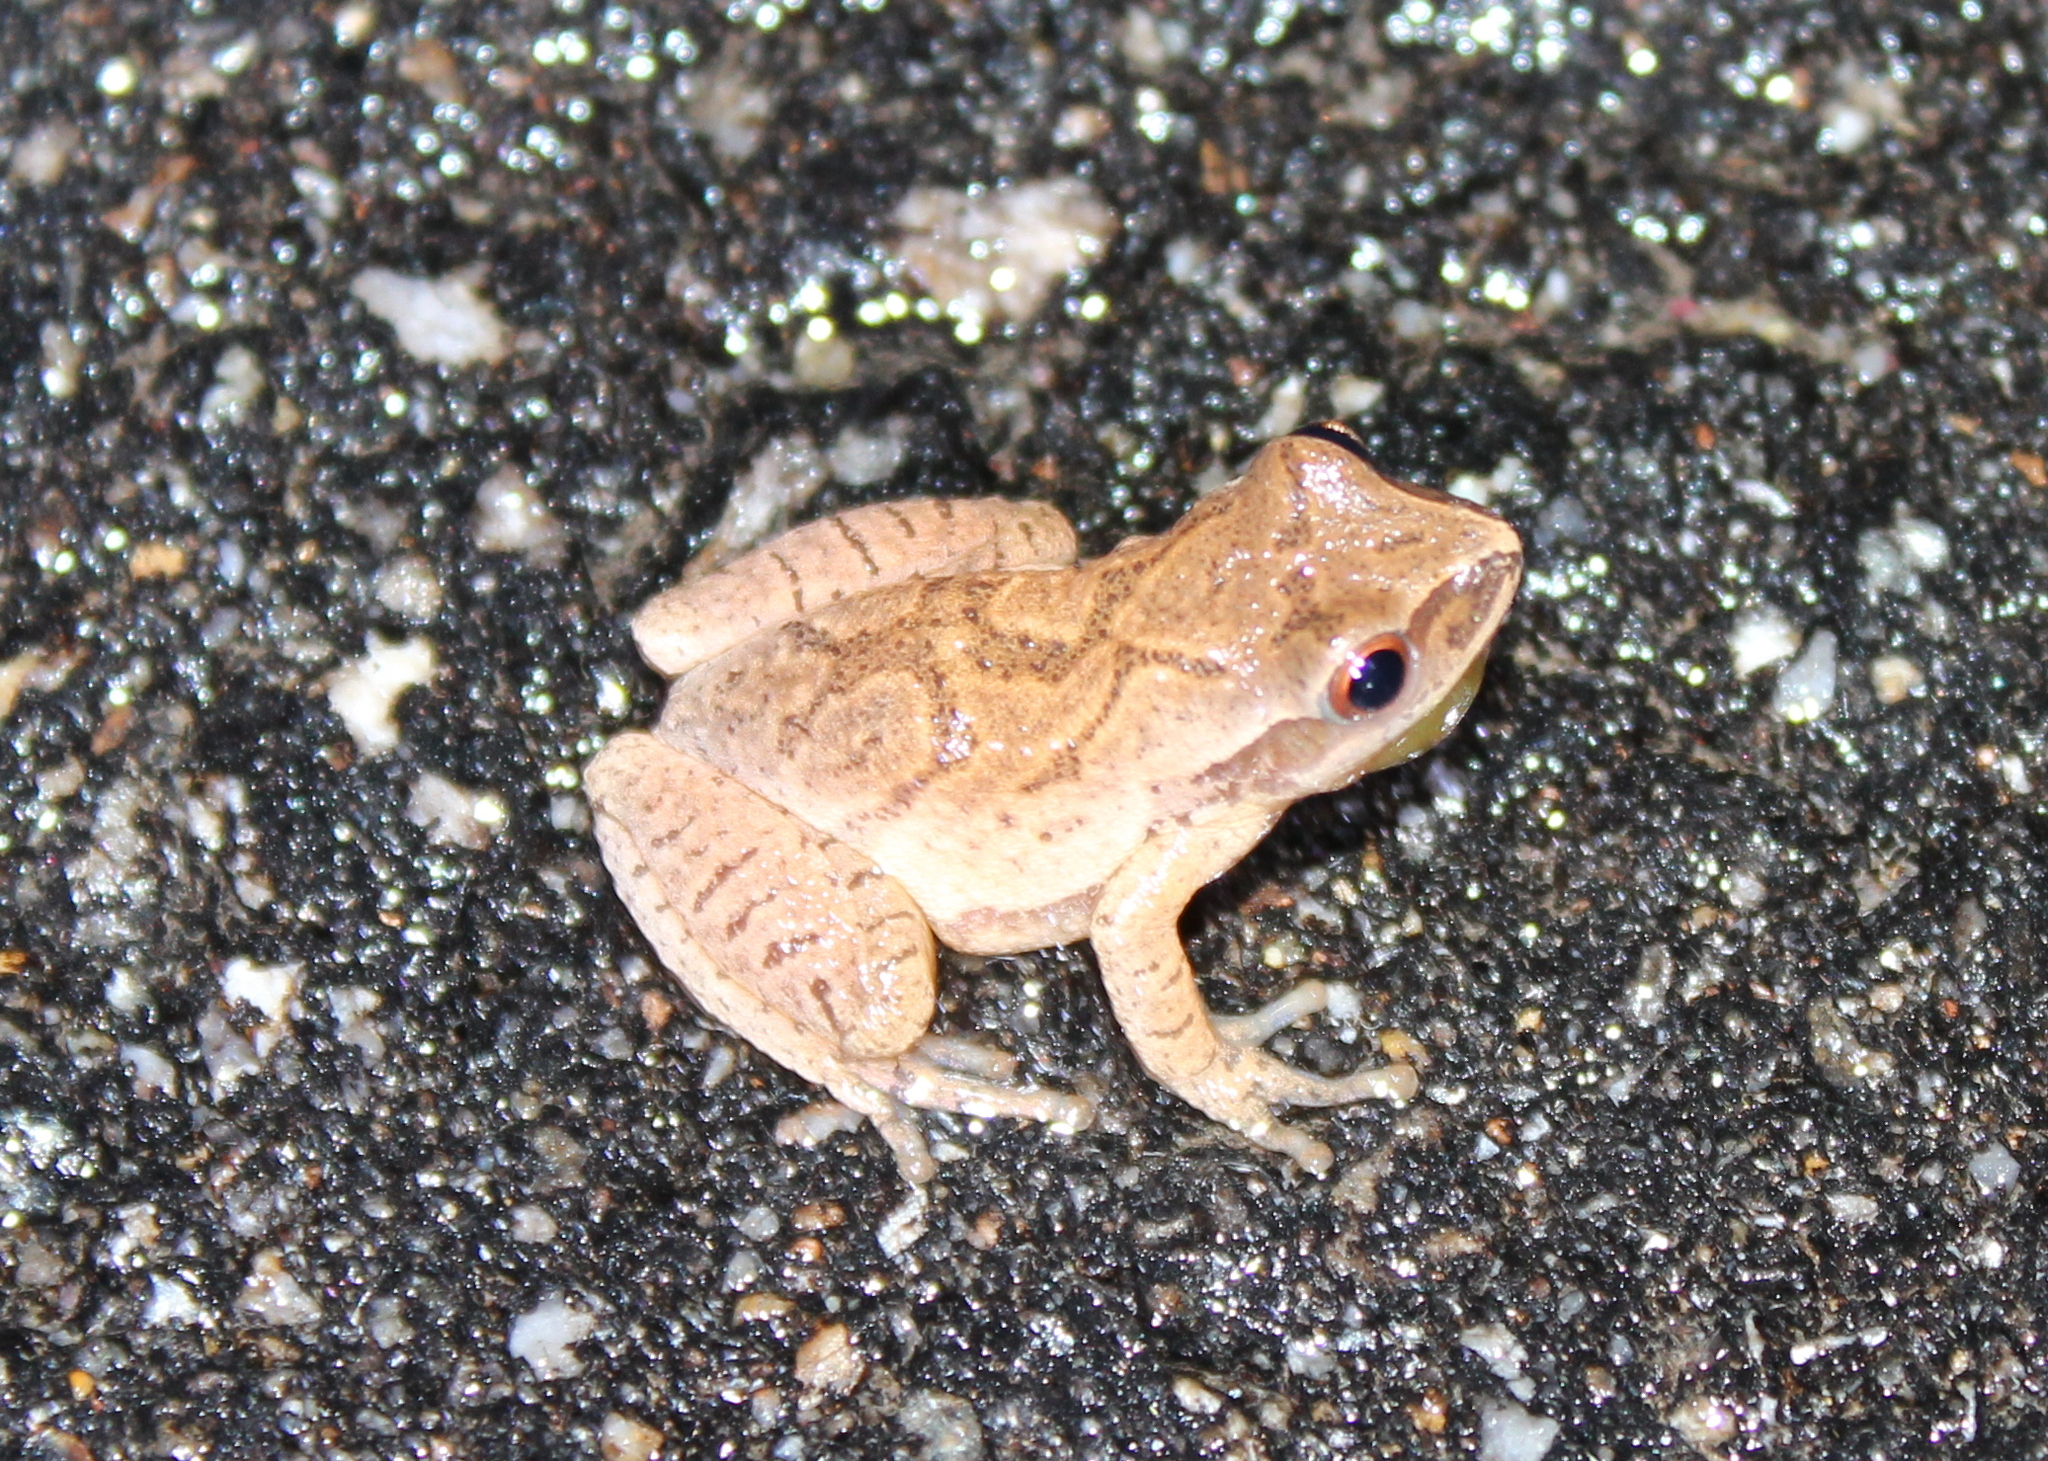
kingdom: Animalia
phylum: Chordata
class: Amphibia
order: Anura
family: Hylidae
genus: Pseudacris
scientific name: Pseudacris crucifer
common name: Spring peeper
